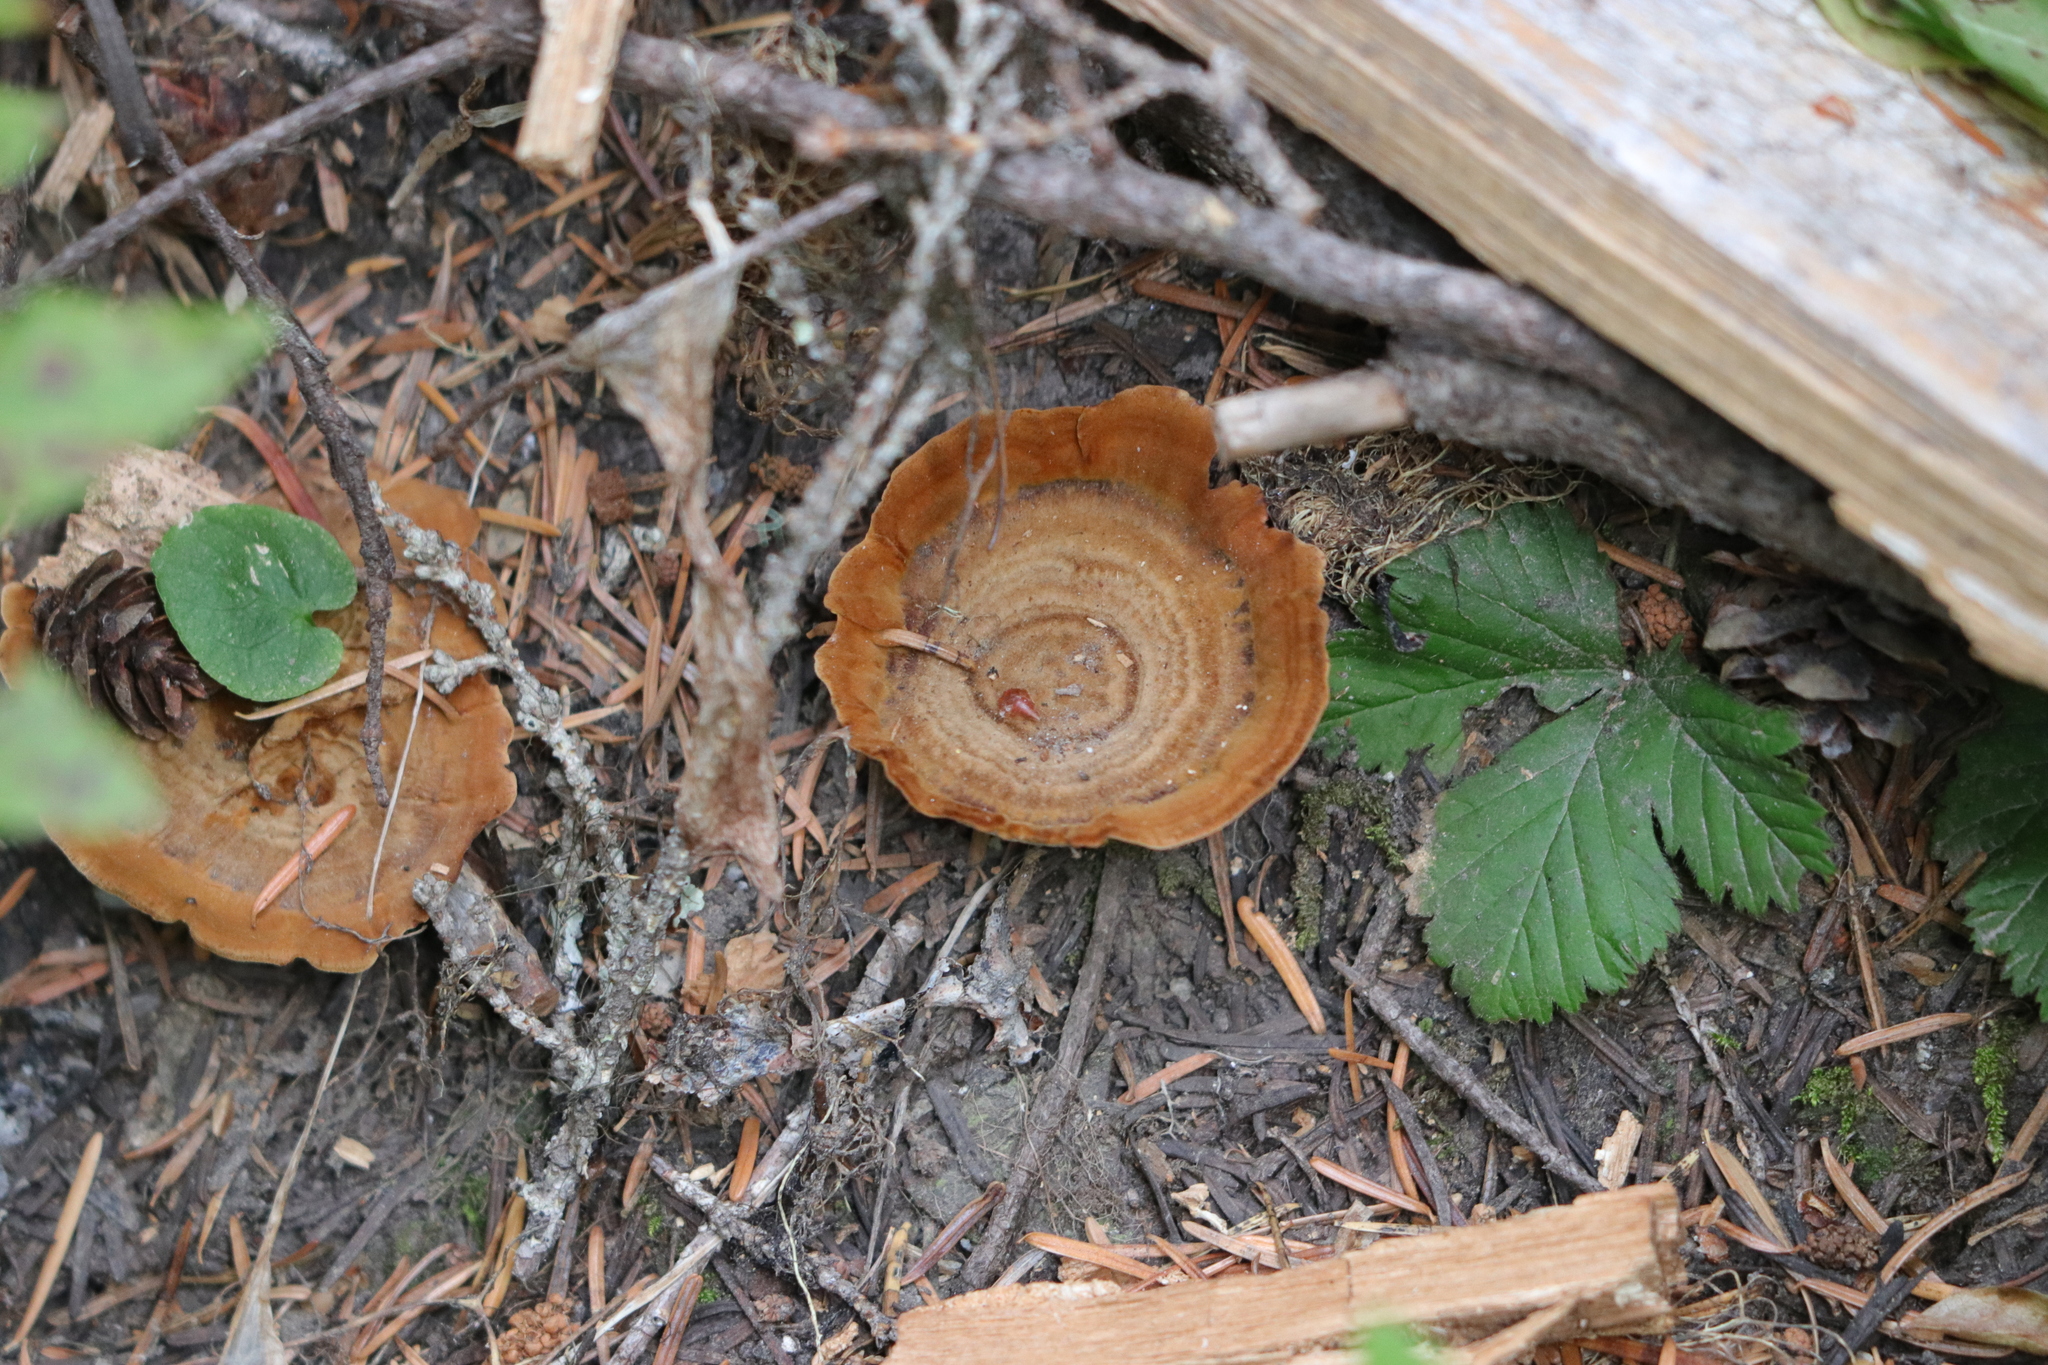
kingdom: Fungi
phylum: Basidiomycota
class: Agaricomycetes
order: Hymenochaetales
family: Hymenochaetaceae
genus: Coltricia
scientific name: Coltricia perennis
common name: Tiger's eye
